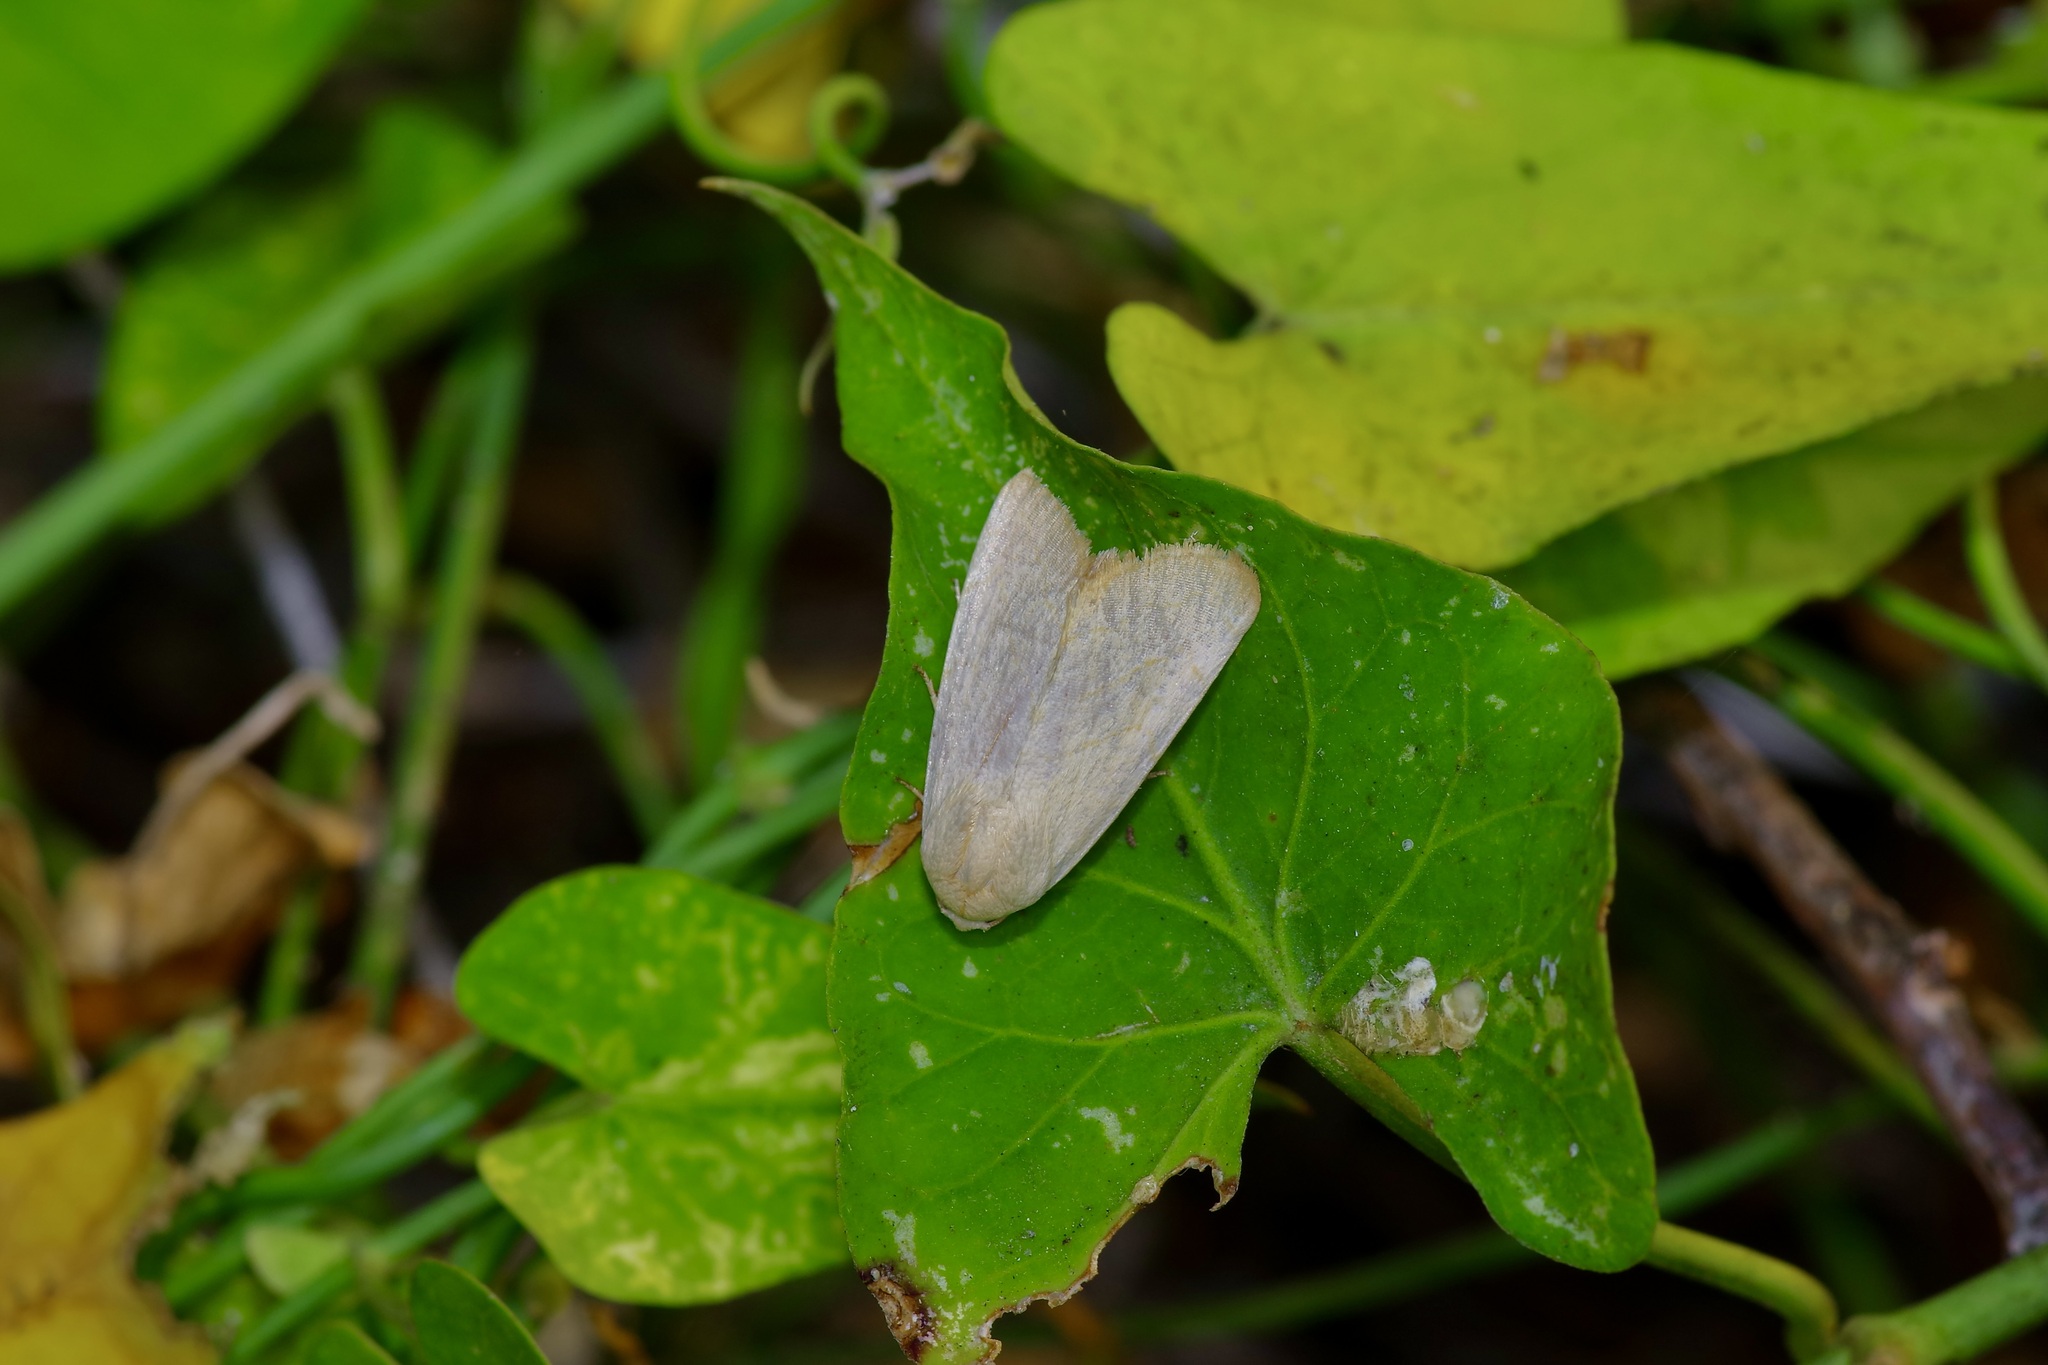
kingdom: Animalia
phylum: Arthropoda
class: Insecta
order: Lepidoptera
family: Noctuidae
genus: Bagisara
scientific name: Bagisara buxea
